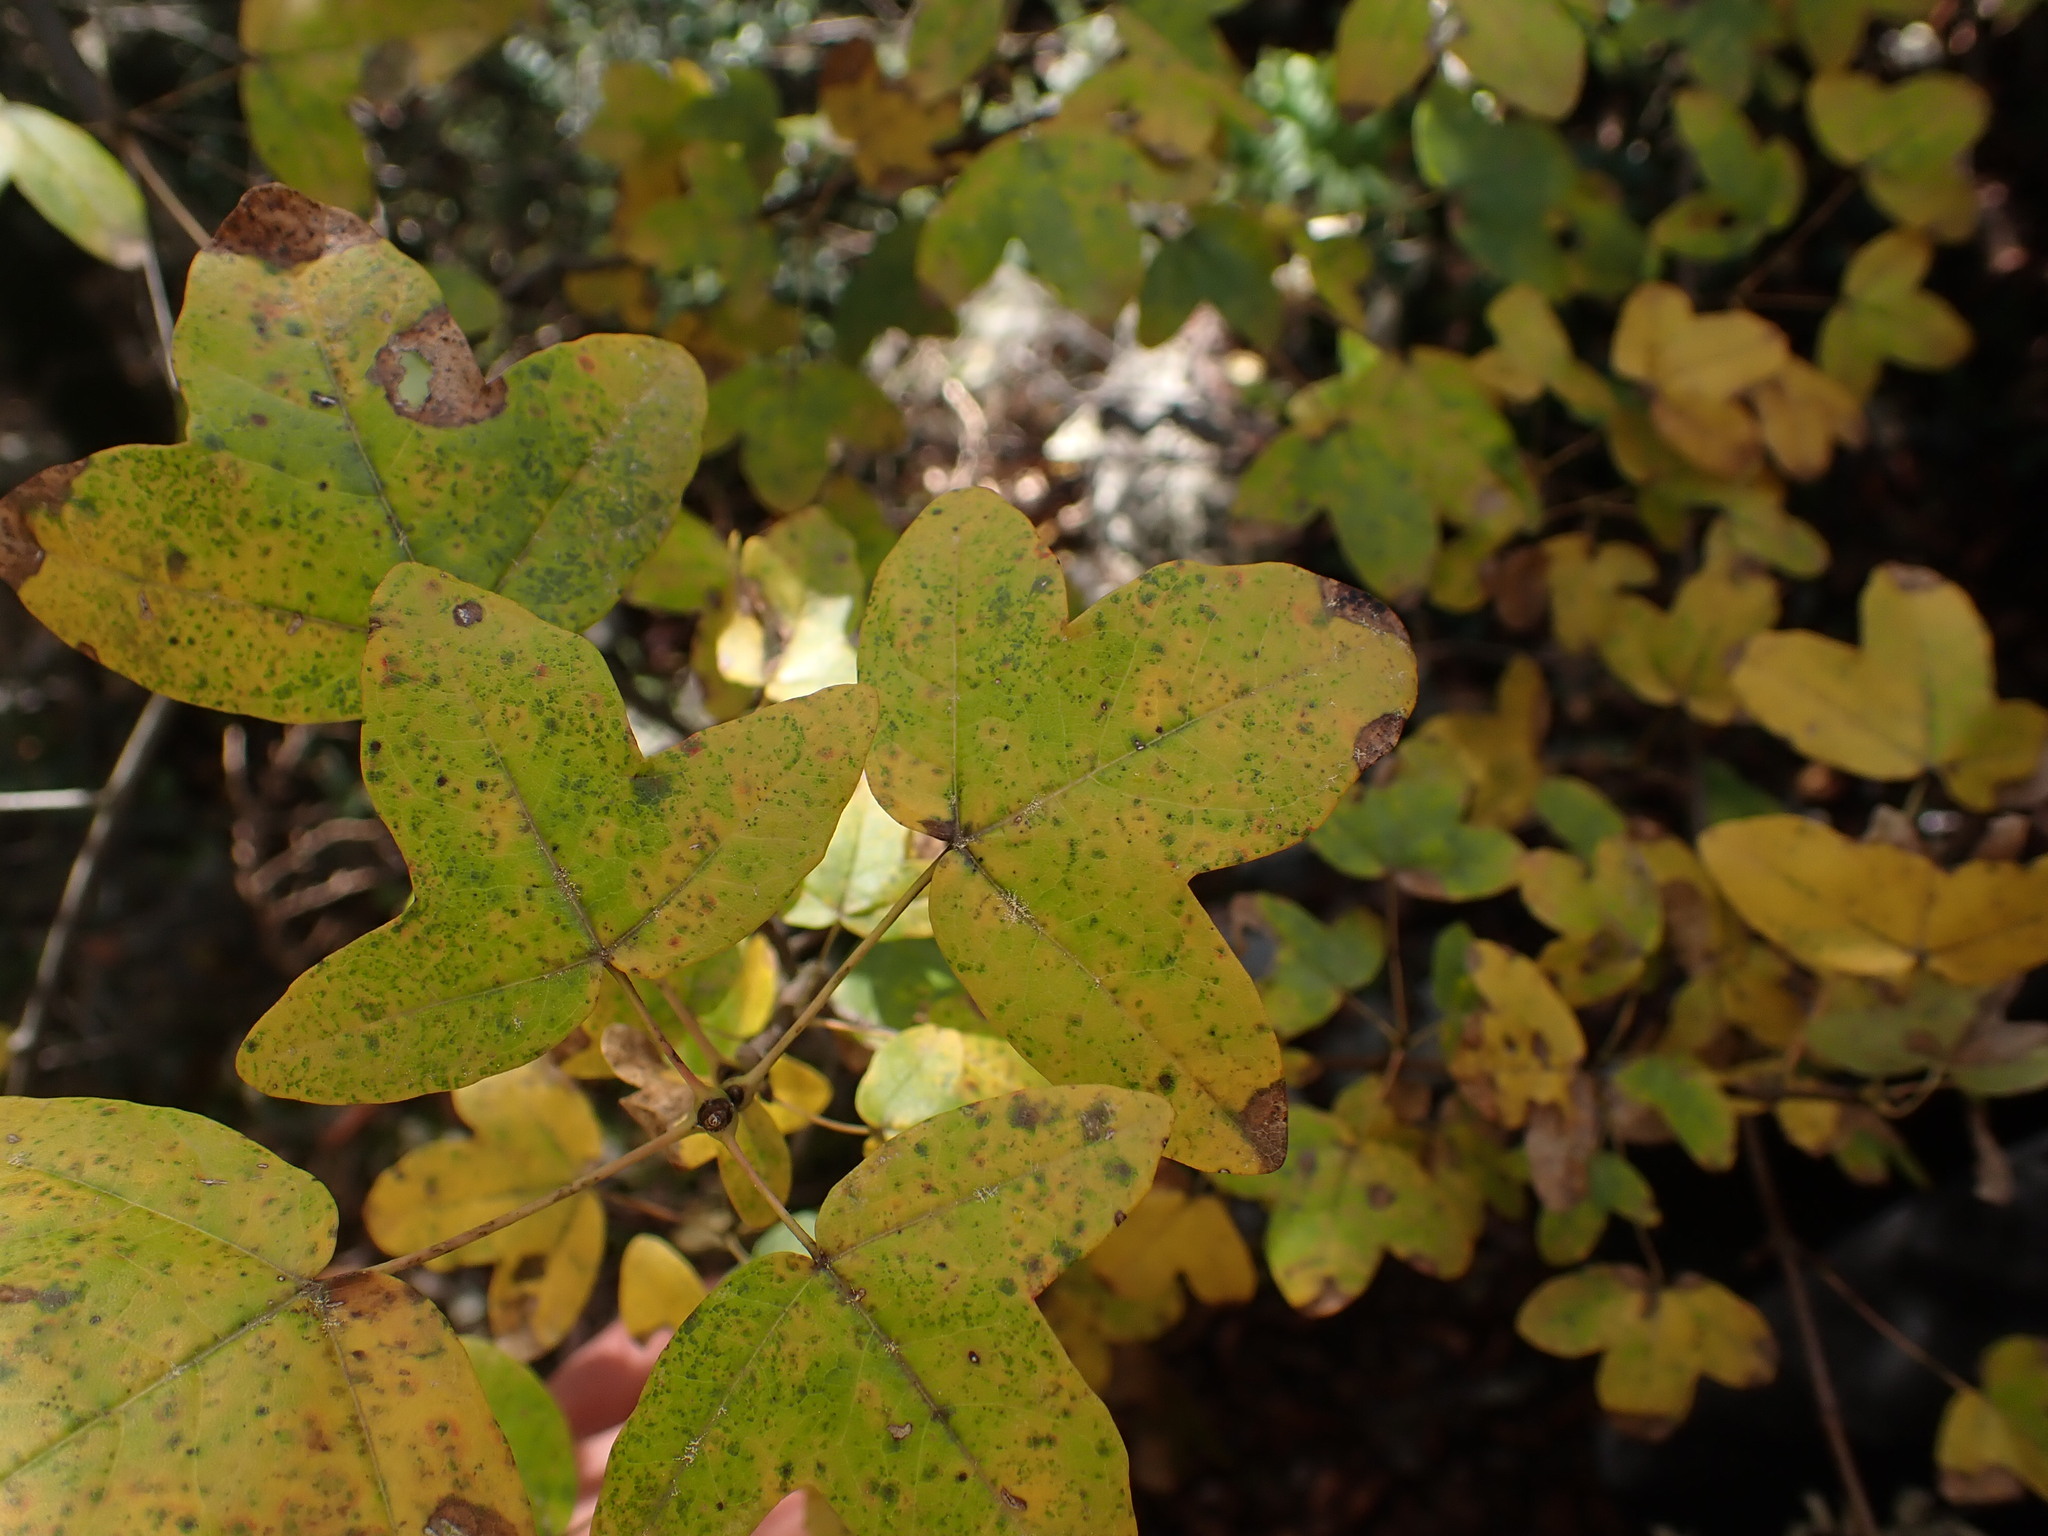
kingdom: Plantae
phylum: Tracheophyta
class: Magnoliopsida
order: Sapindales
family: Sapindaceae
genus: Acer
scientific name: Acer monspessulanum
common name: Montpellier maple
